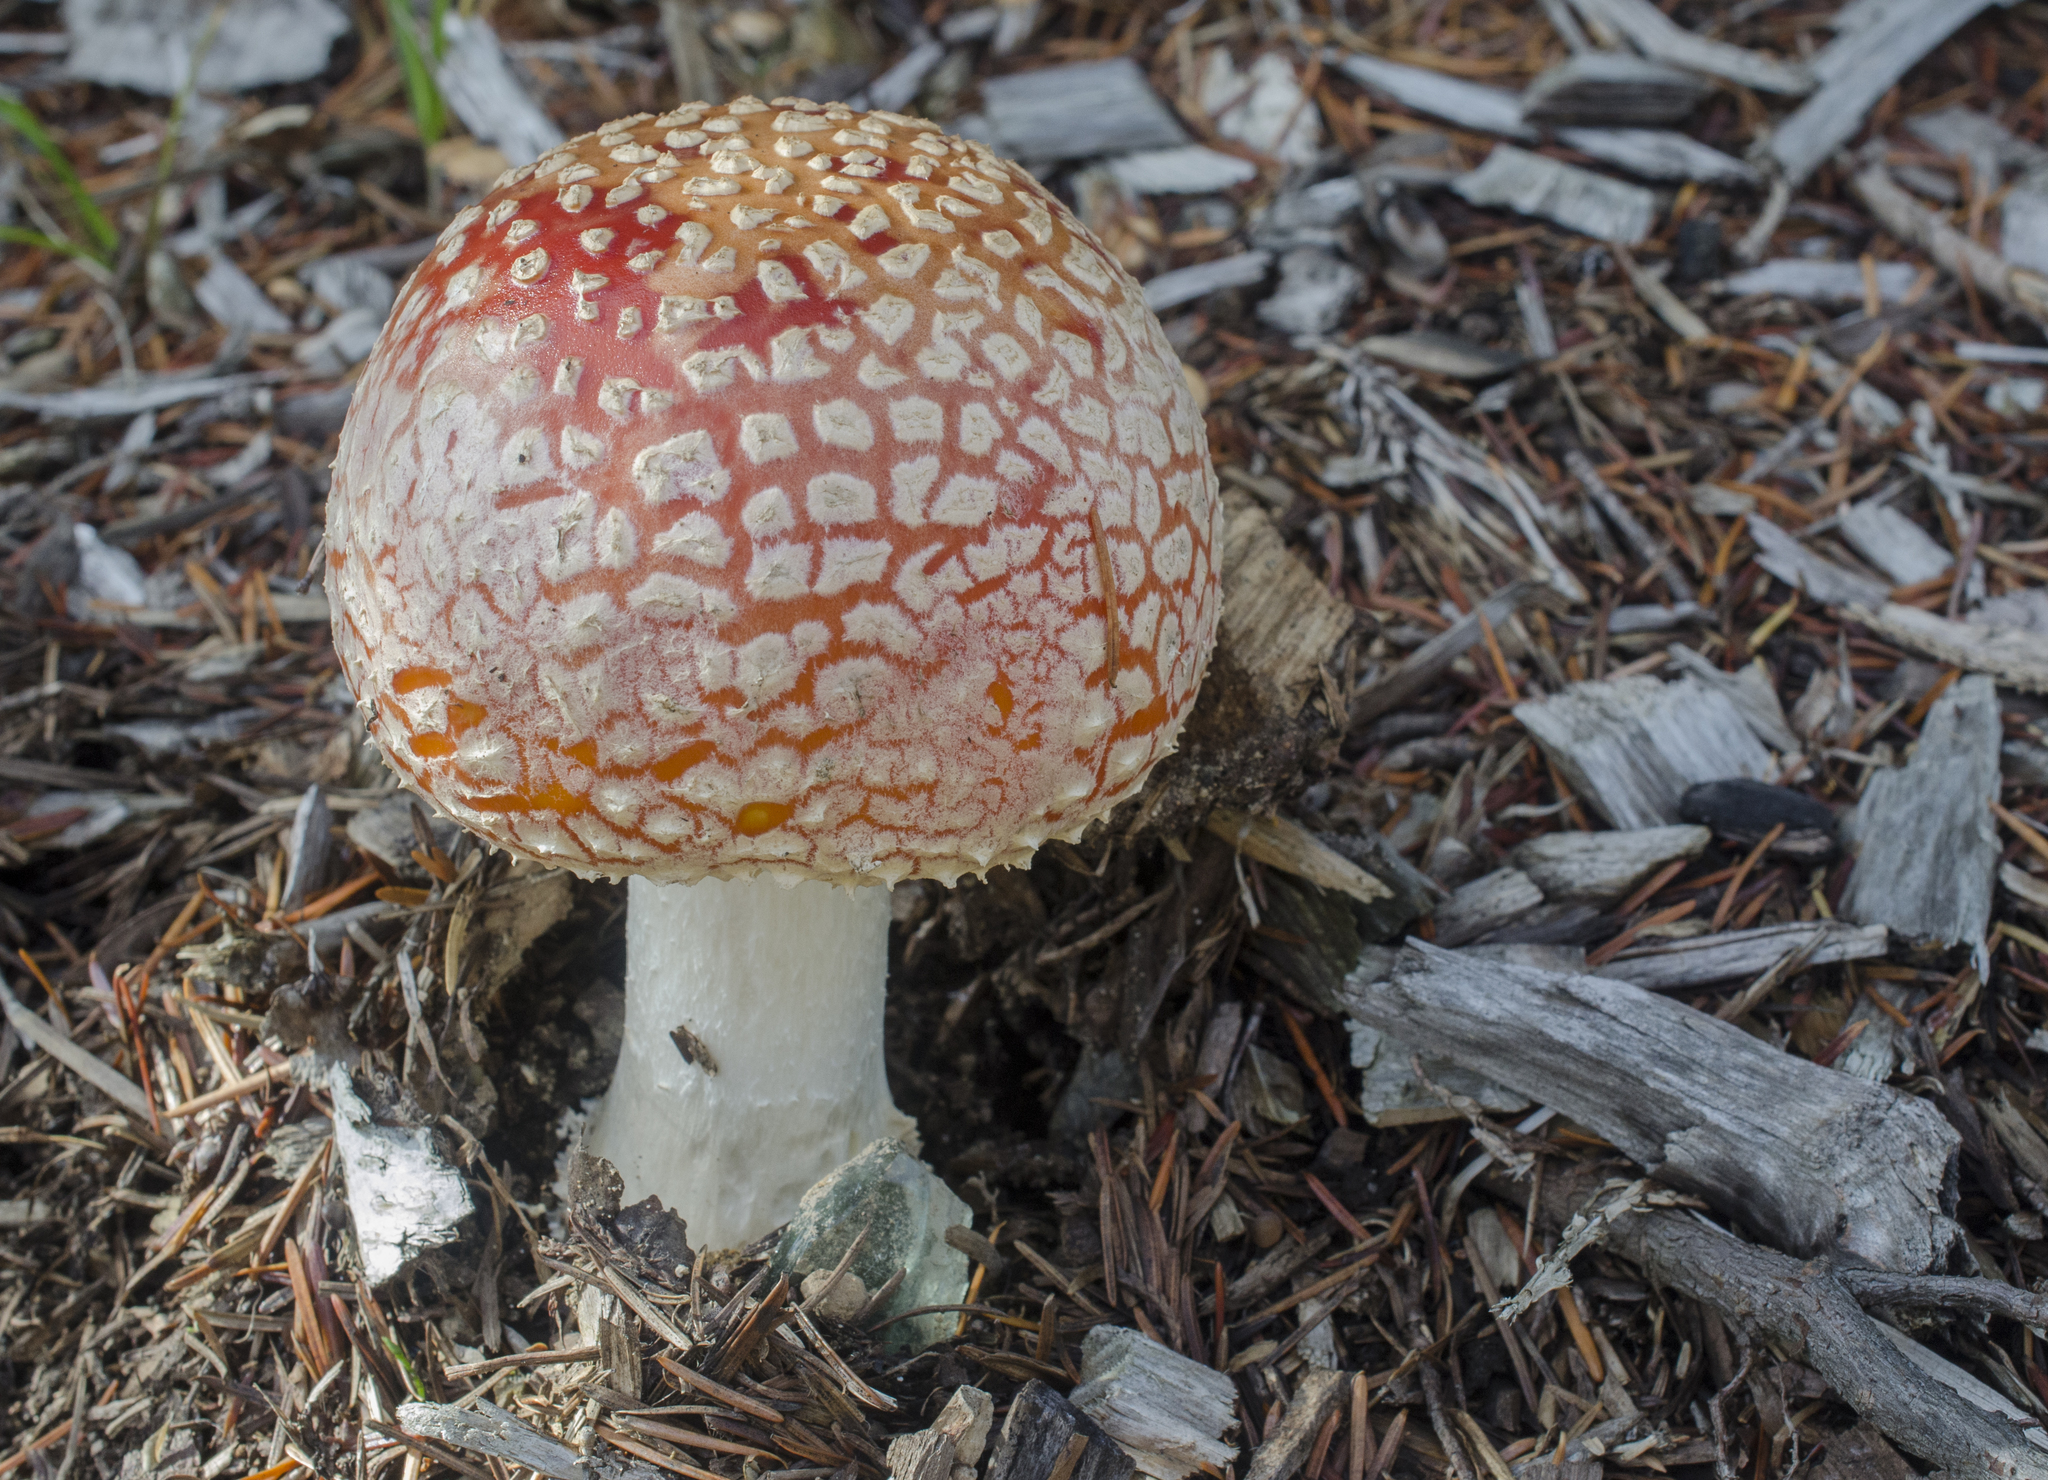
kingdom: Fungi
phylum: Basidiomycota
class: Agaricomycetes
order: Agaricales
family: Amanitaceae
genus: Amanita
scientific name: Amanita muscaria
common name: Fly agaric
